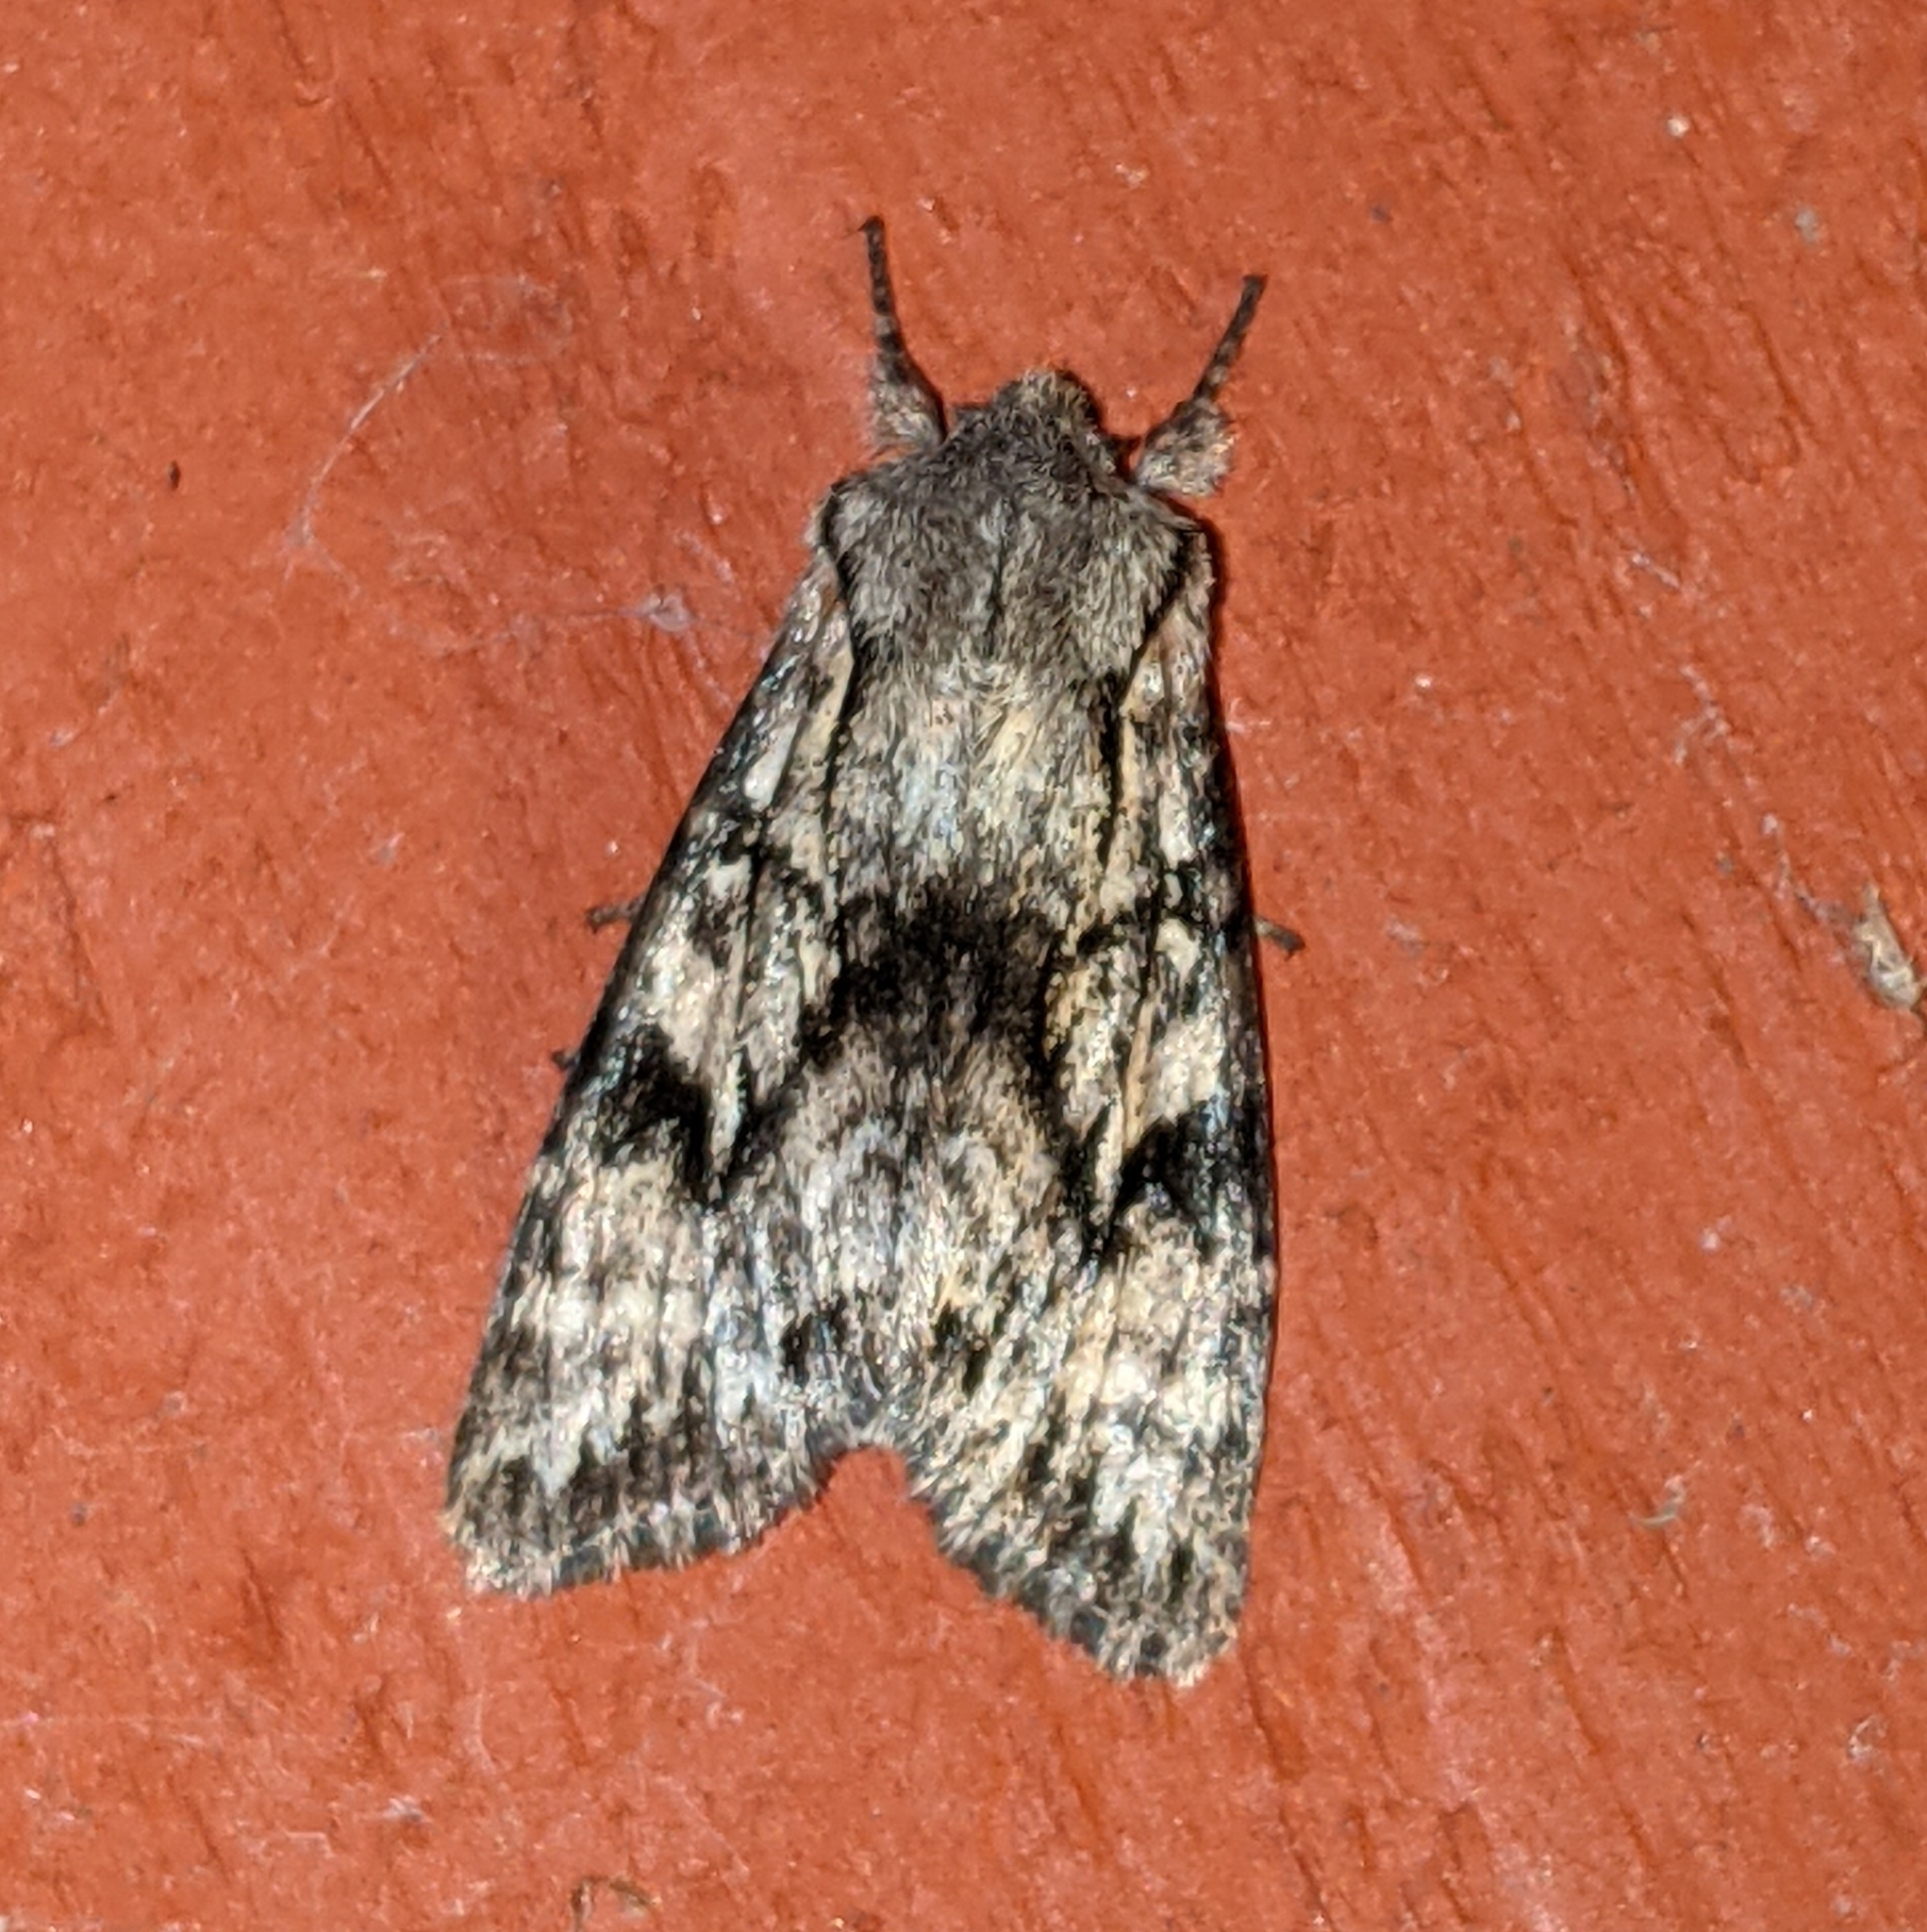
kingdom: Animalia
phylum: Arthropoda
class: Insecta
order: Lepidoptera
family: Noctuidae
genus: Egira
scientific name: Egira simplex
